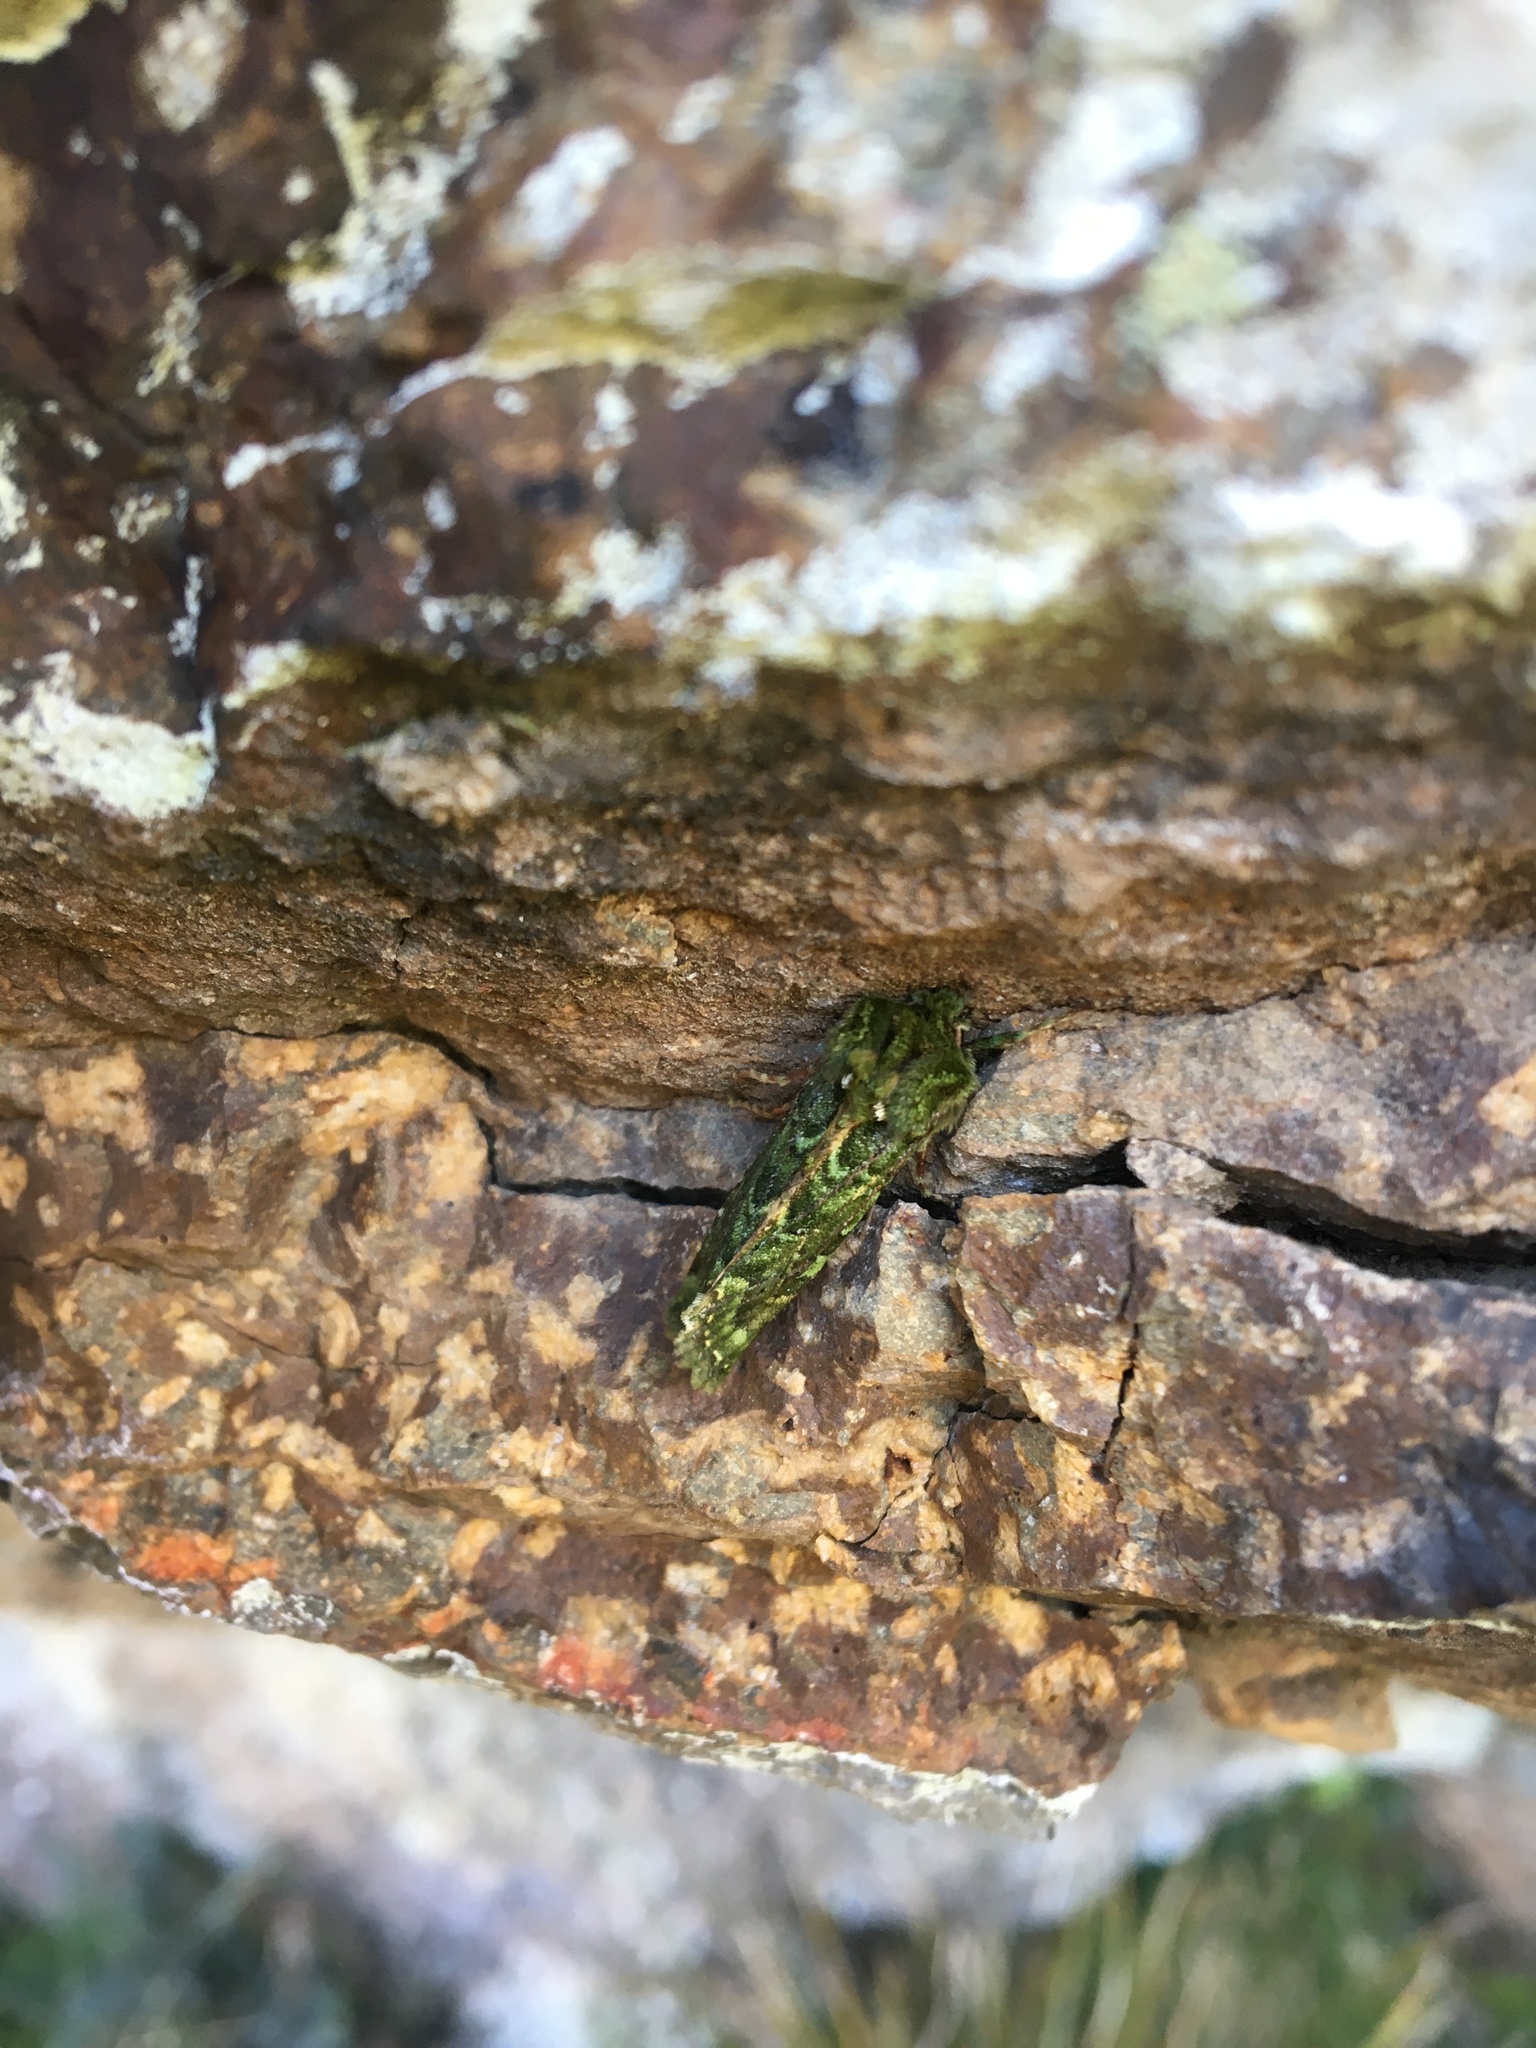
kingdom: Animalia
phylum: Arthropoda
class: Insecta
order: Lepidoptera
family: Noctuidae
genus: Feredayia
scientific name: Feredayia grammosa
